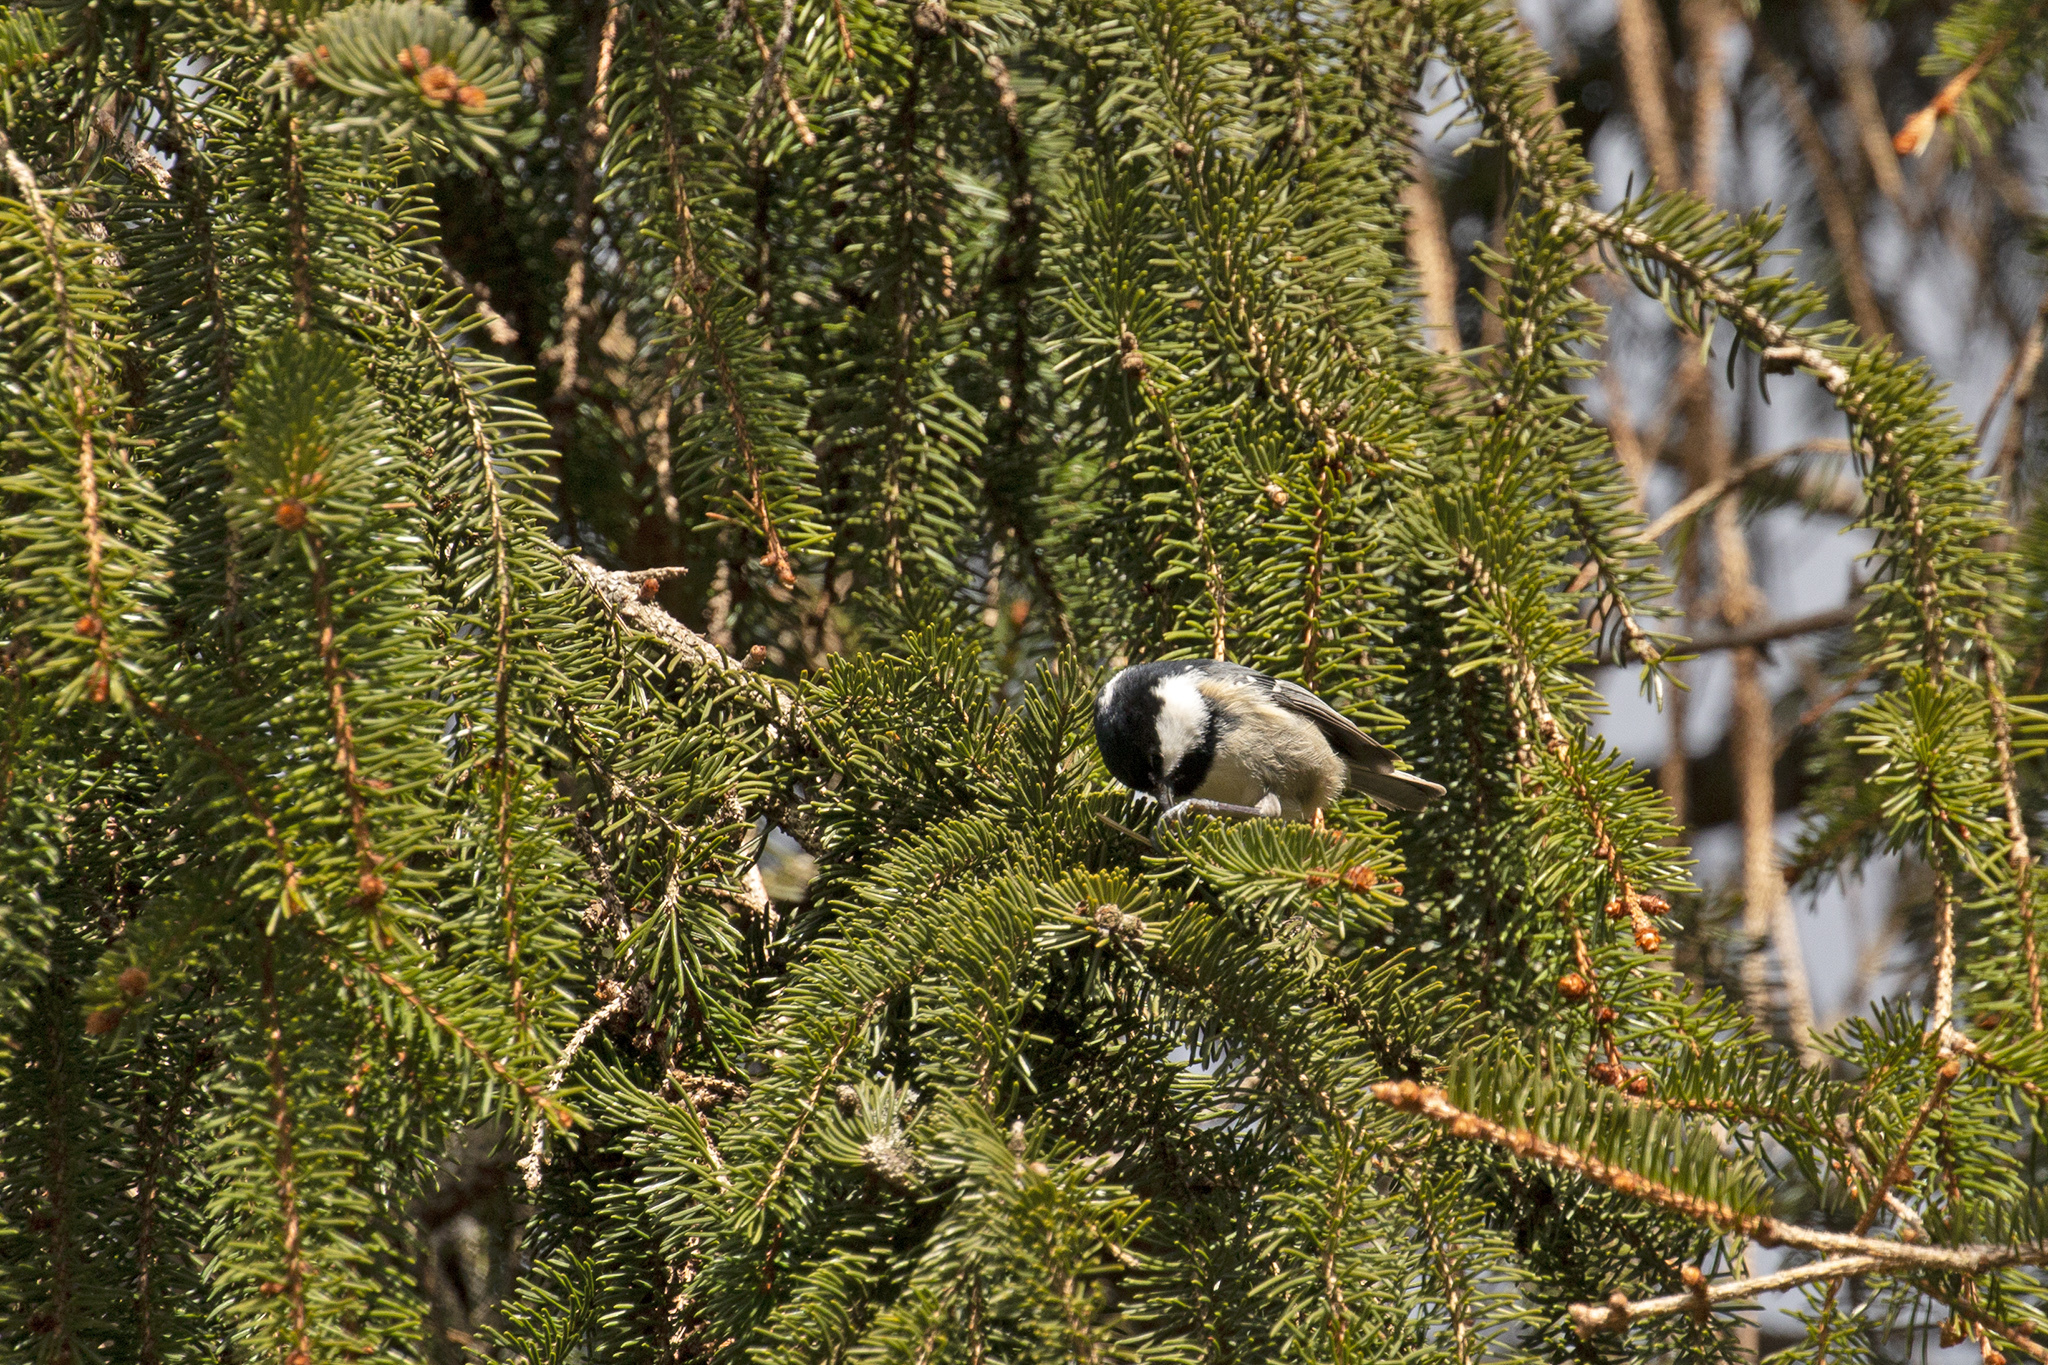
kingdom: Animalia
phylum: Chordata
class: Aves
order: Passeriformes
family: Paridae
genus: Periparus
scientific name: Periparus ater
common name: Coal tit
